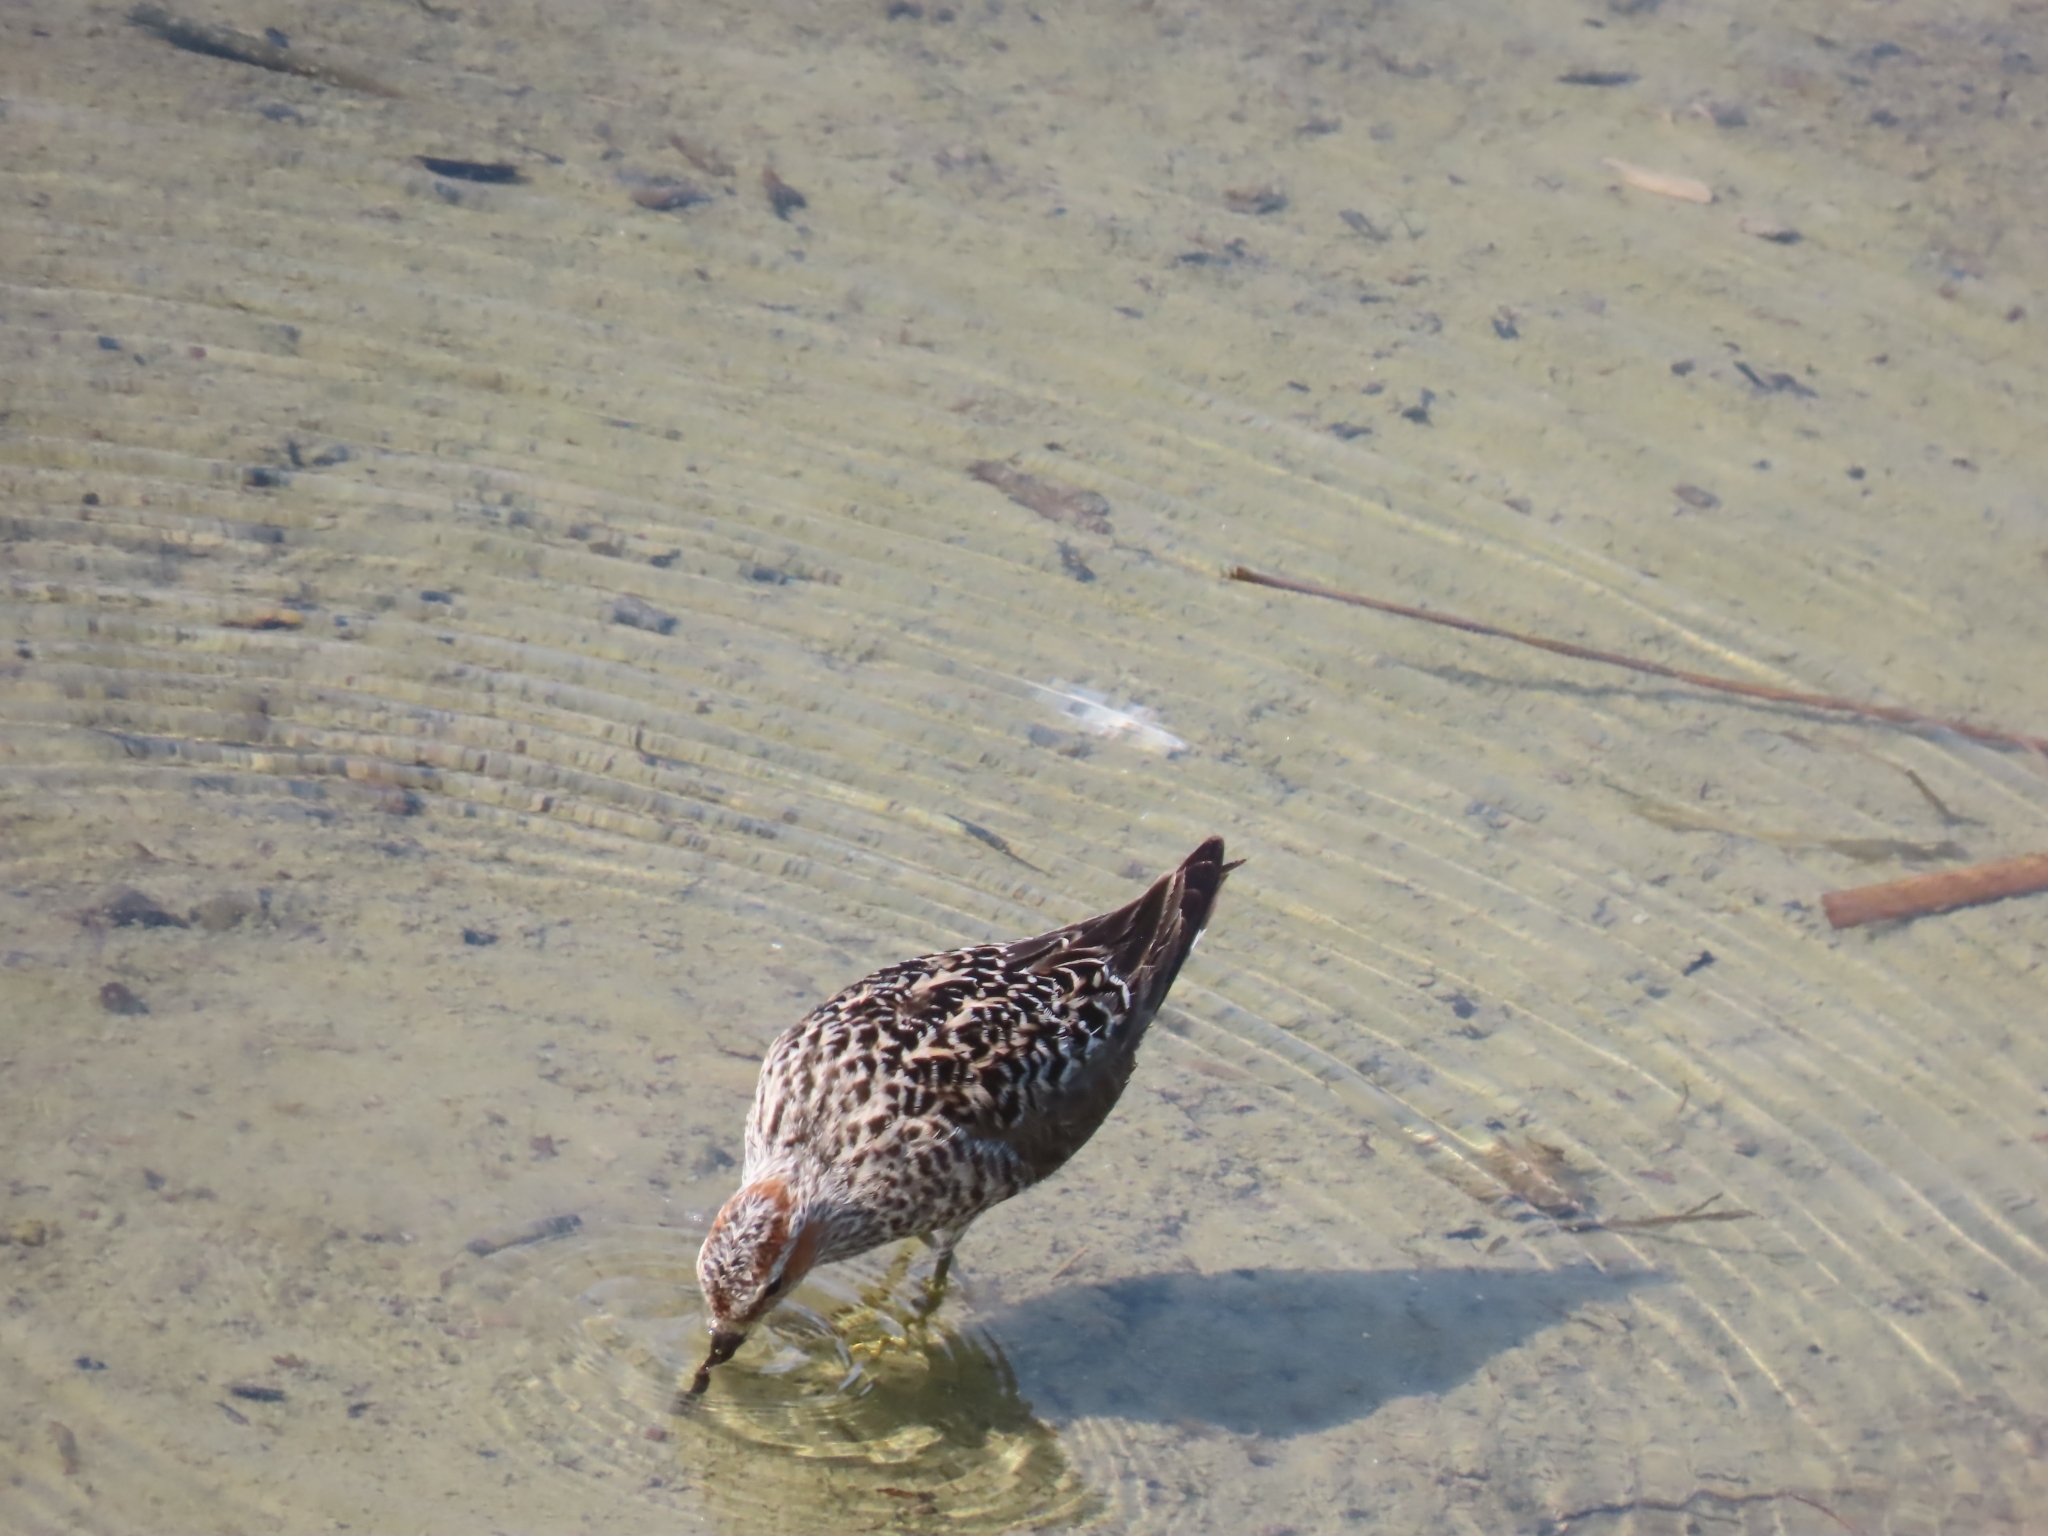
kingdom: Animalia
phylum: Chordata
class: Aves
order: Charadriiformes
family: Scolopacidae
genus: Calidris
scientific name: Calidris himantopus
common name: Stilt sandpiper
